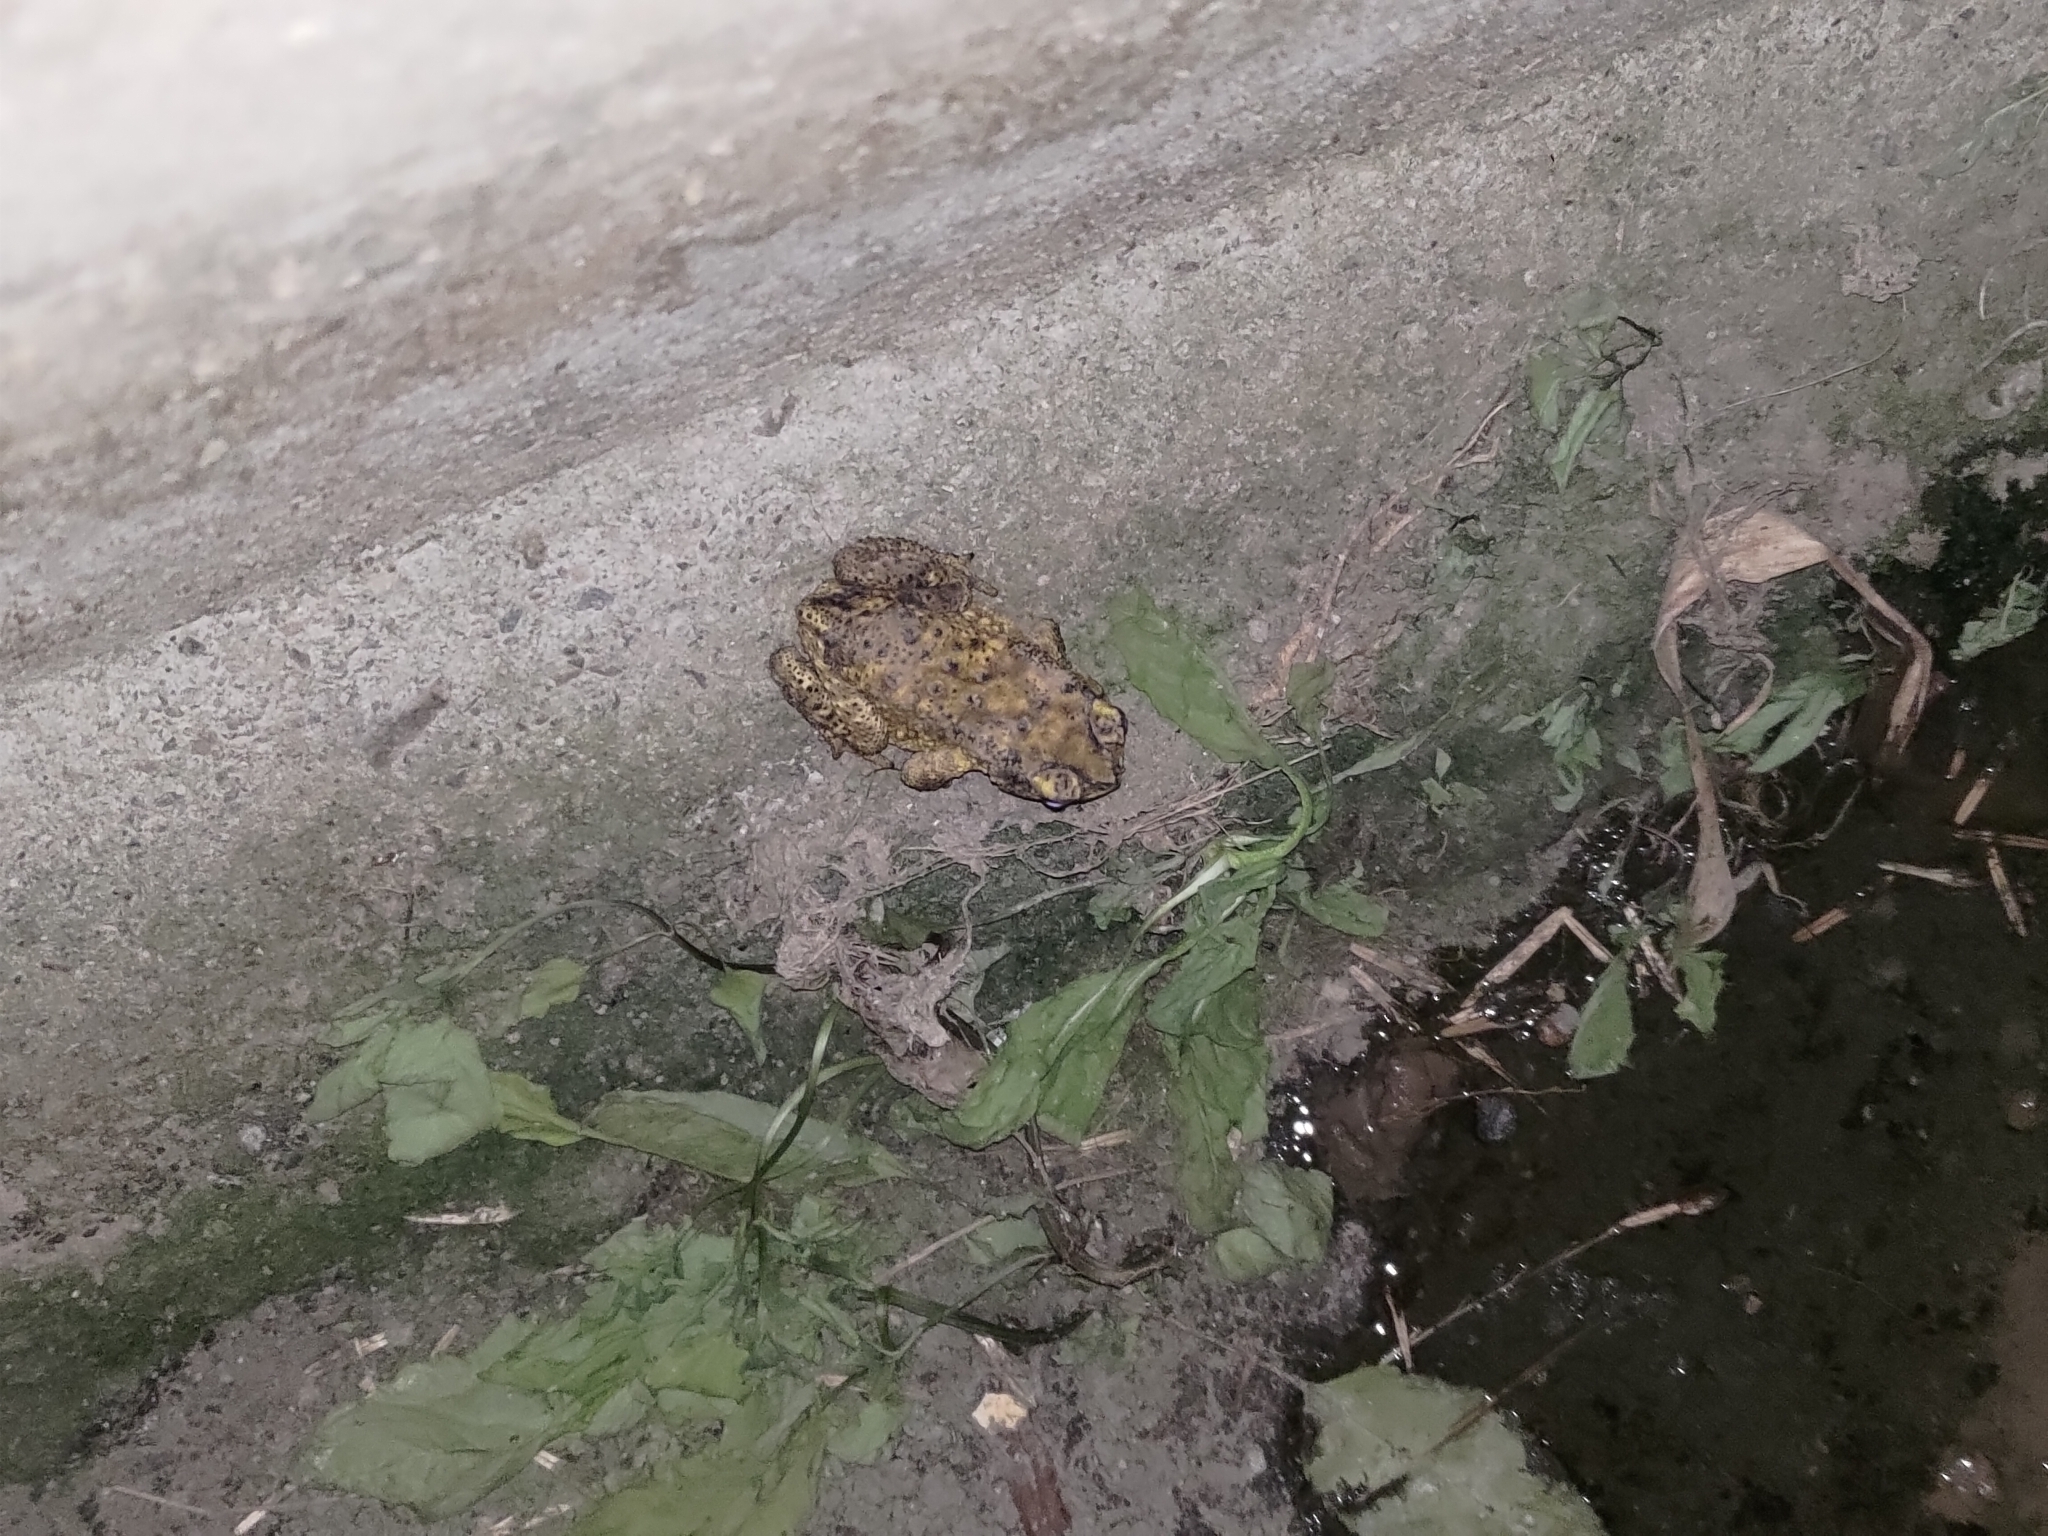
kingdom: Animalia
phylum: Chordata
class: Amphibia
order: Anura
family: Bufonidae
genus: Duttaphrynus
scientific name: Duttaphrynus melanostictus
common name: Common sunda toad
